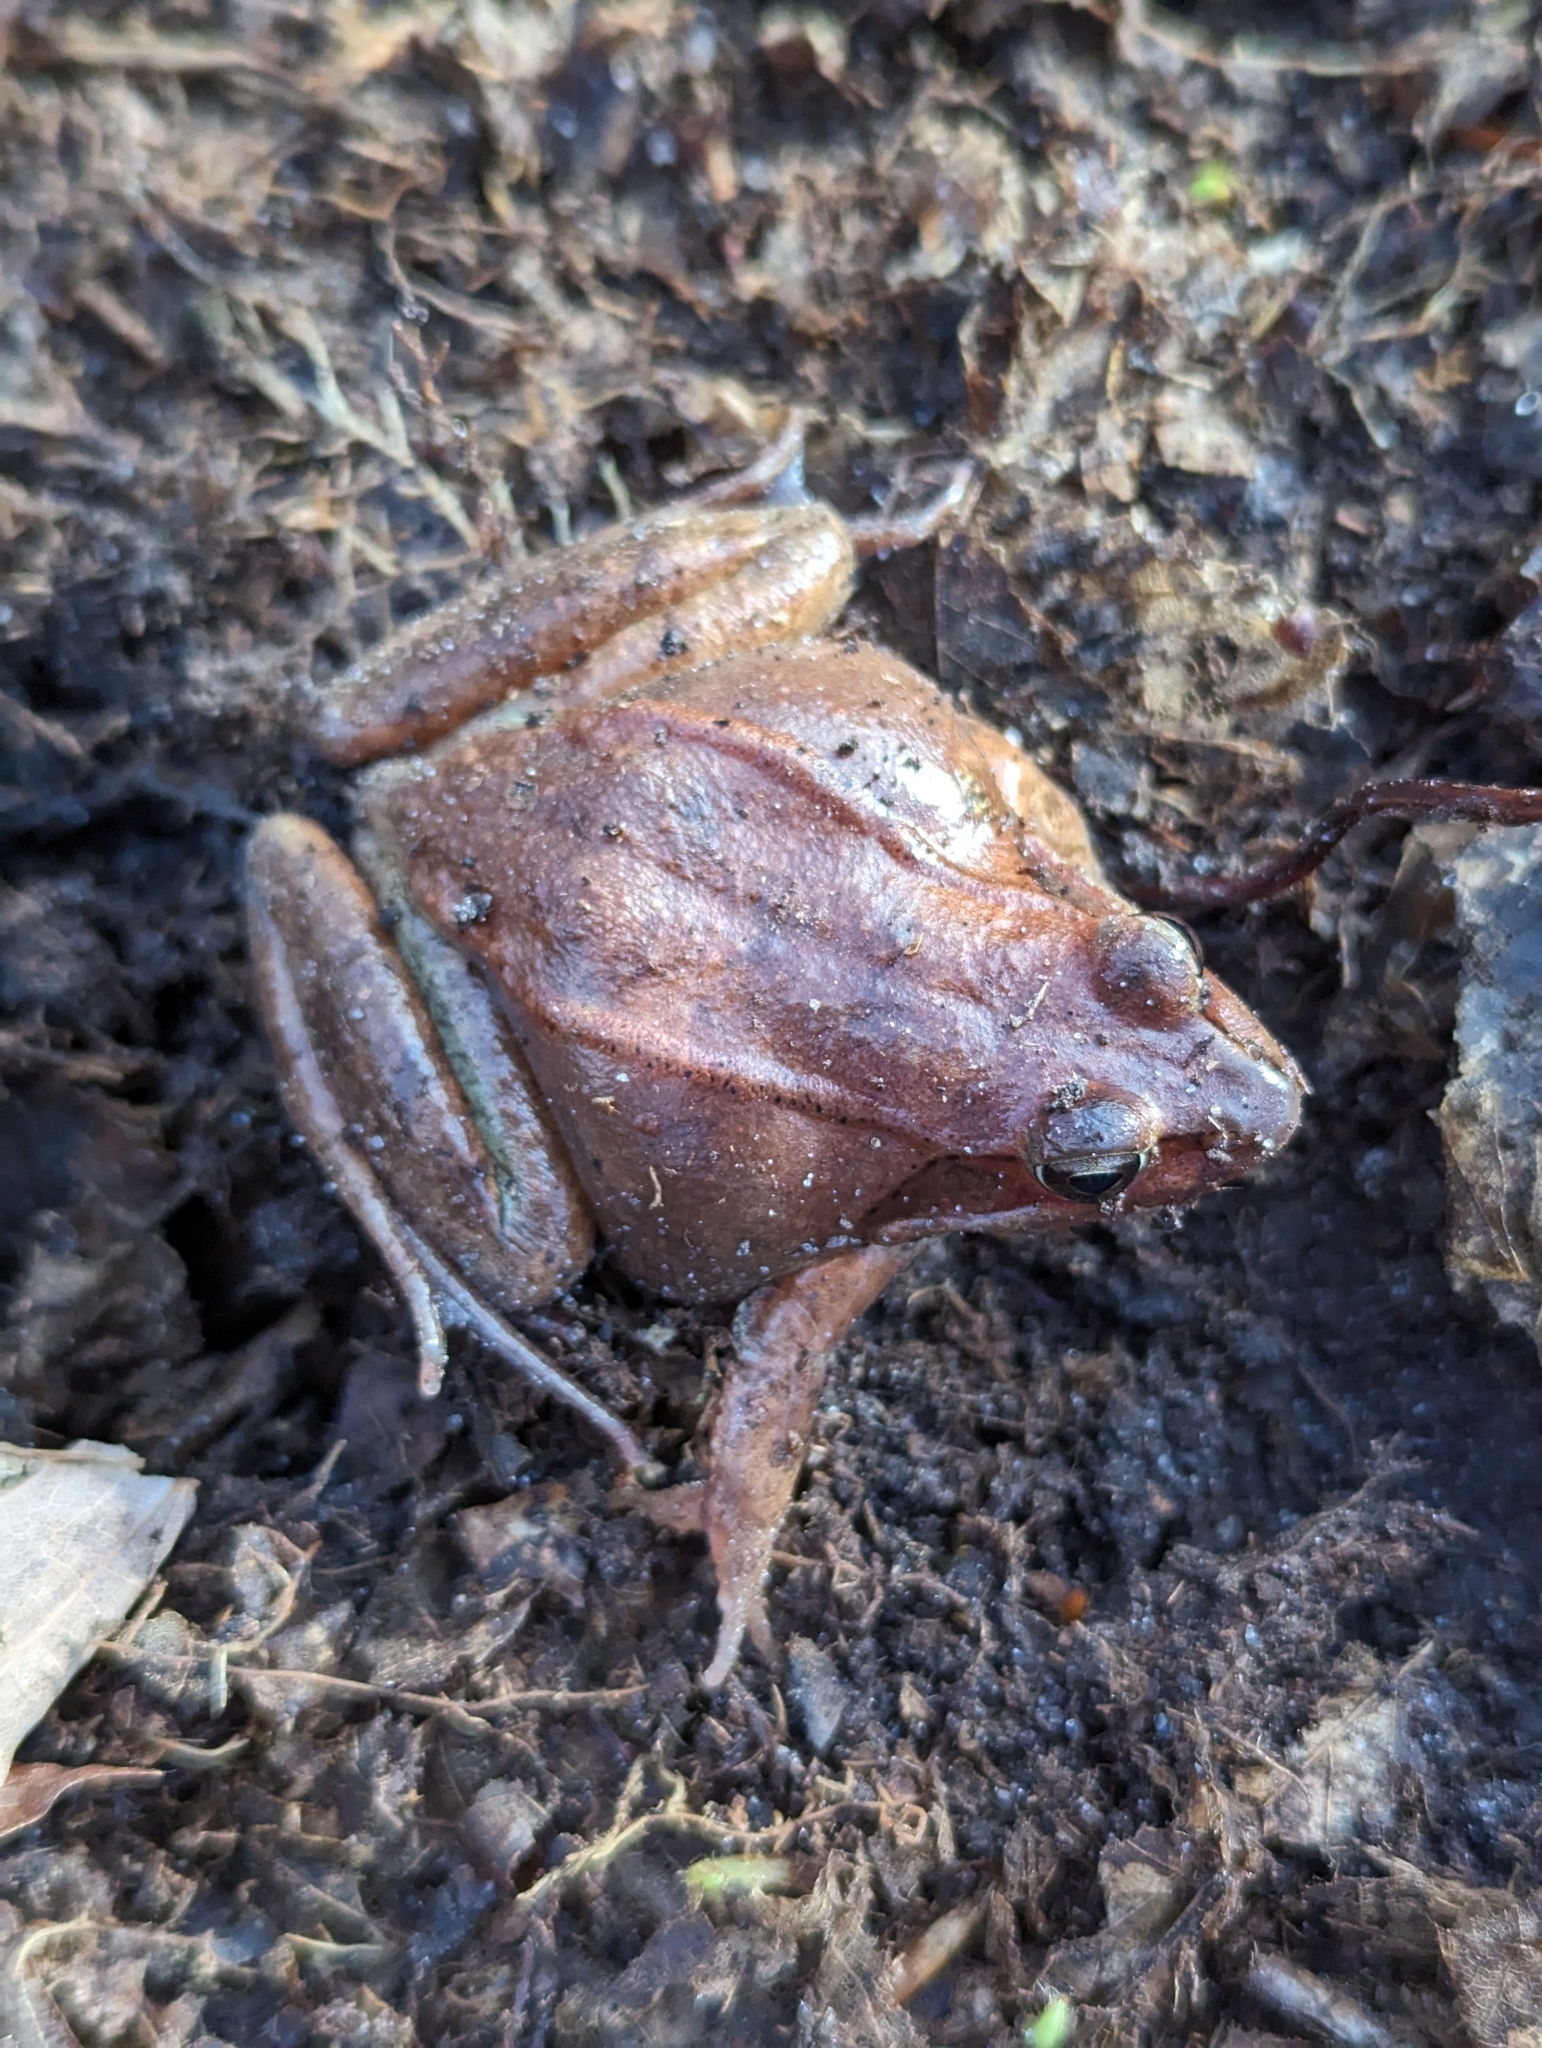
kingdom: Animalia
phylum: Chordata
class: Amphibia
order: Anura
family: Ranidae
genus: Lithobates
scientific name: Lithobates sylvaticus
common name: Wood frog
